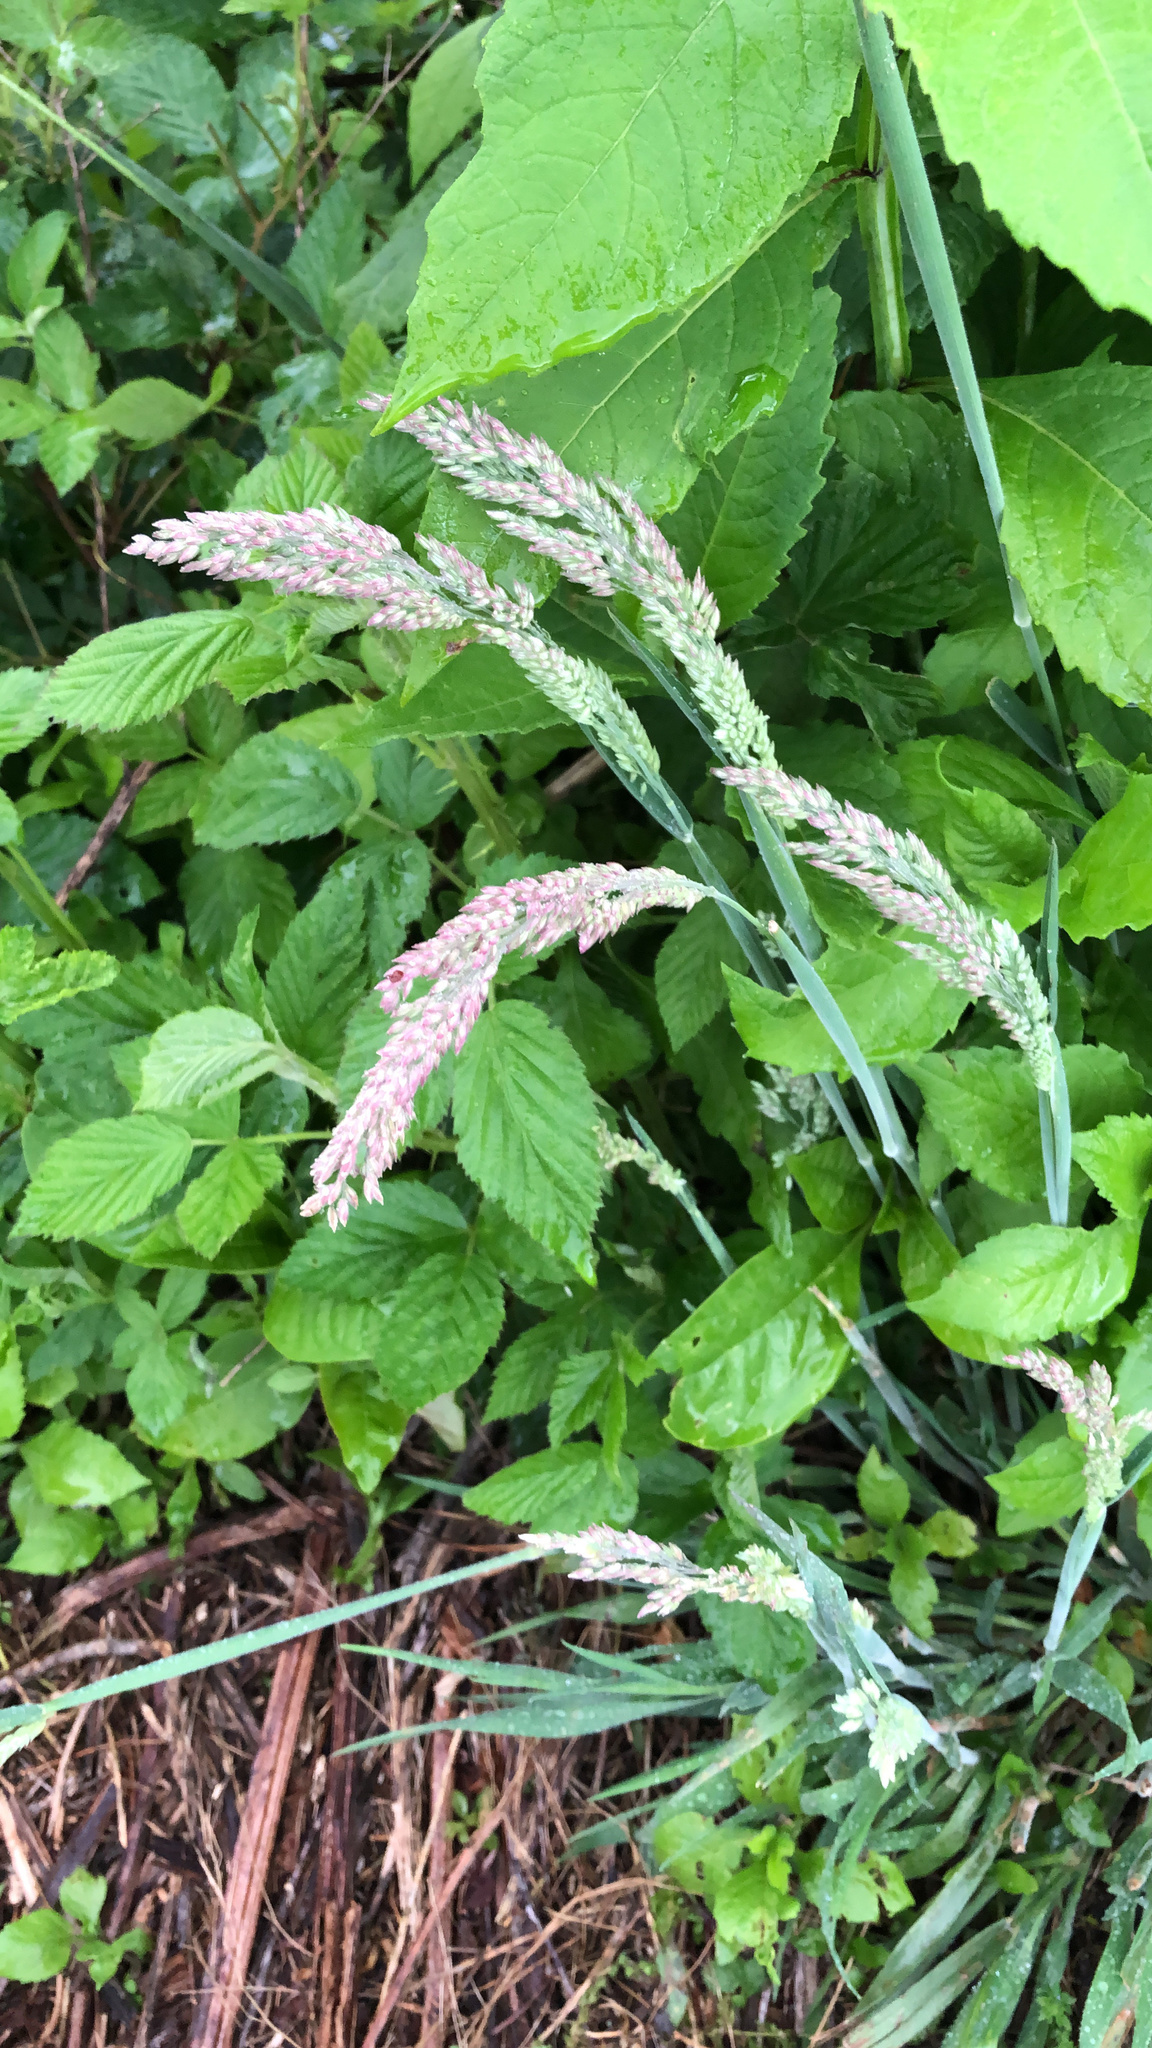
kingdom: Plantae
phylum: Tracheophyta
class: Liliopsida
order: Poales
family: Poaceae
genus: Holcus
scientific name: Holcus lanatus
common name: Yorkshire-fog
